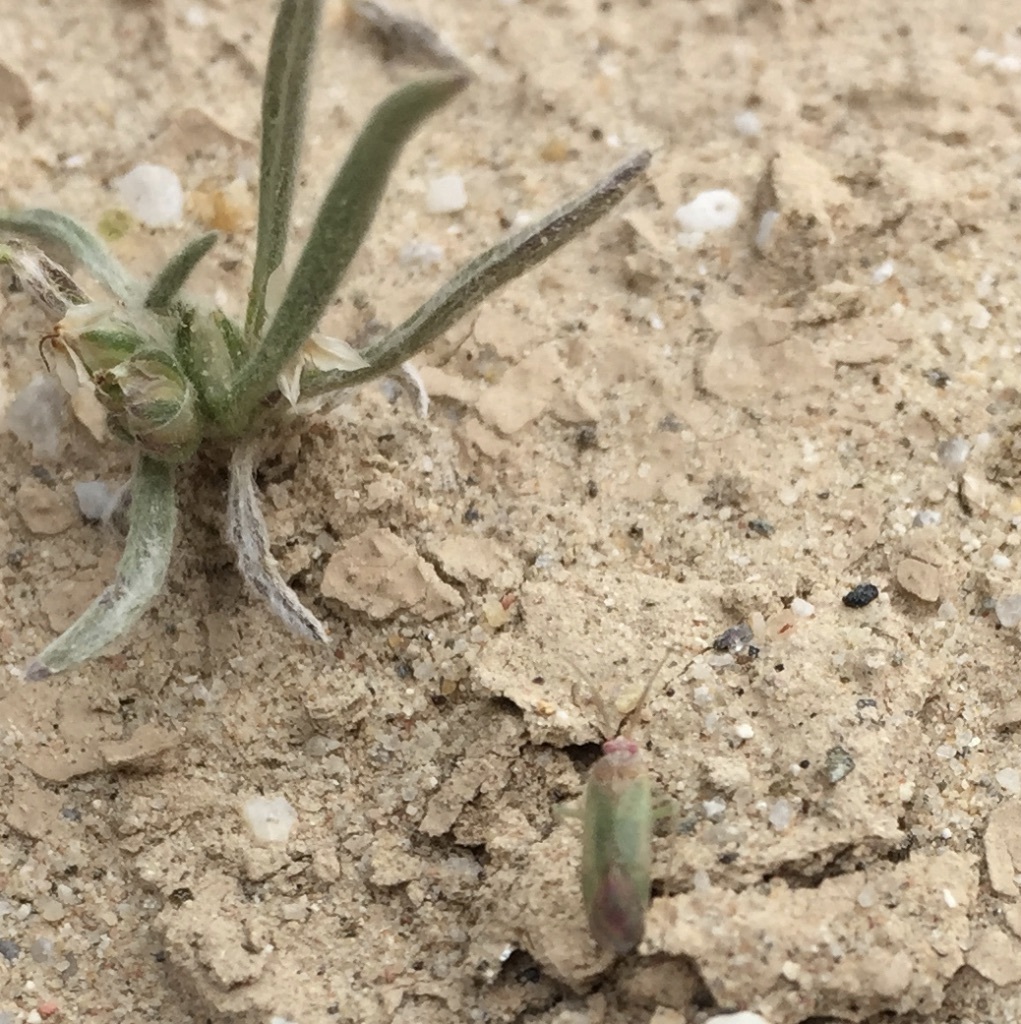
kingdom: Animalia
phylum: Arthropoda
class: Insecta
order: Hemiptera
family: Miridae
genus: Pseudopsallus
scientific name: Pseudopsallus puberus
